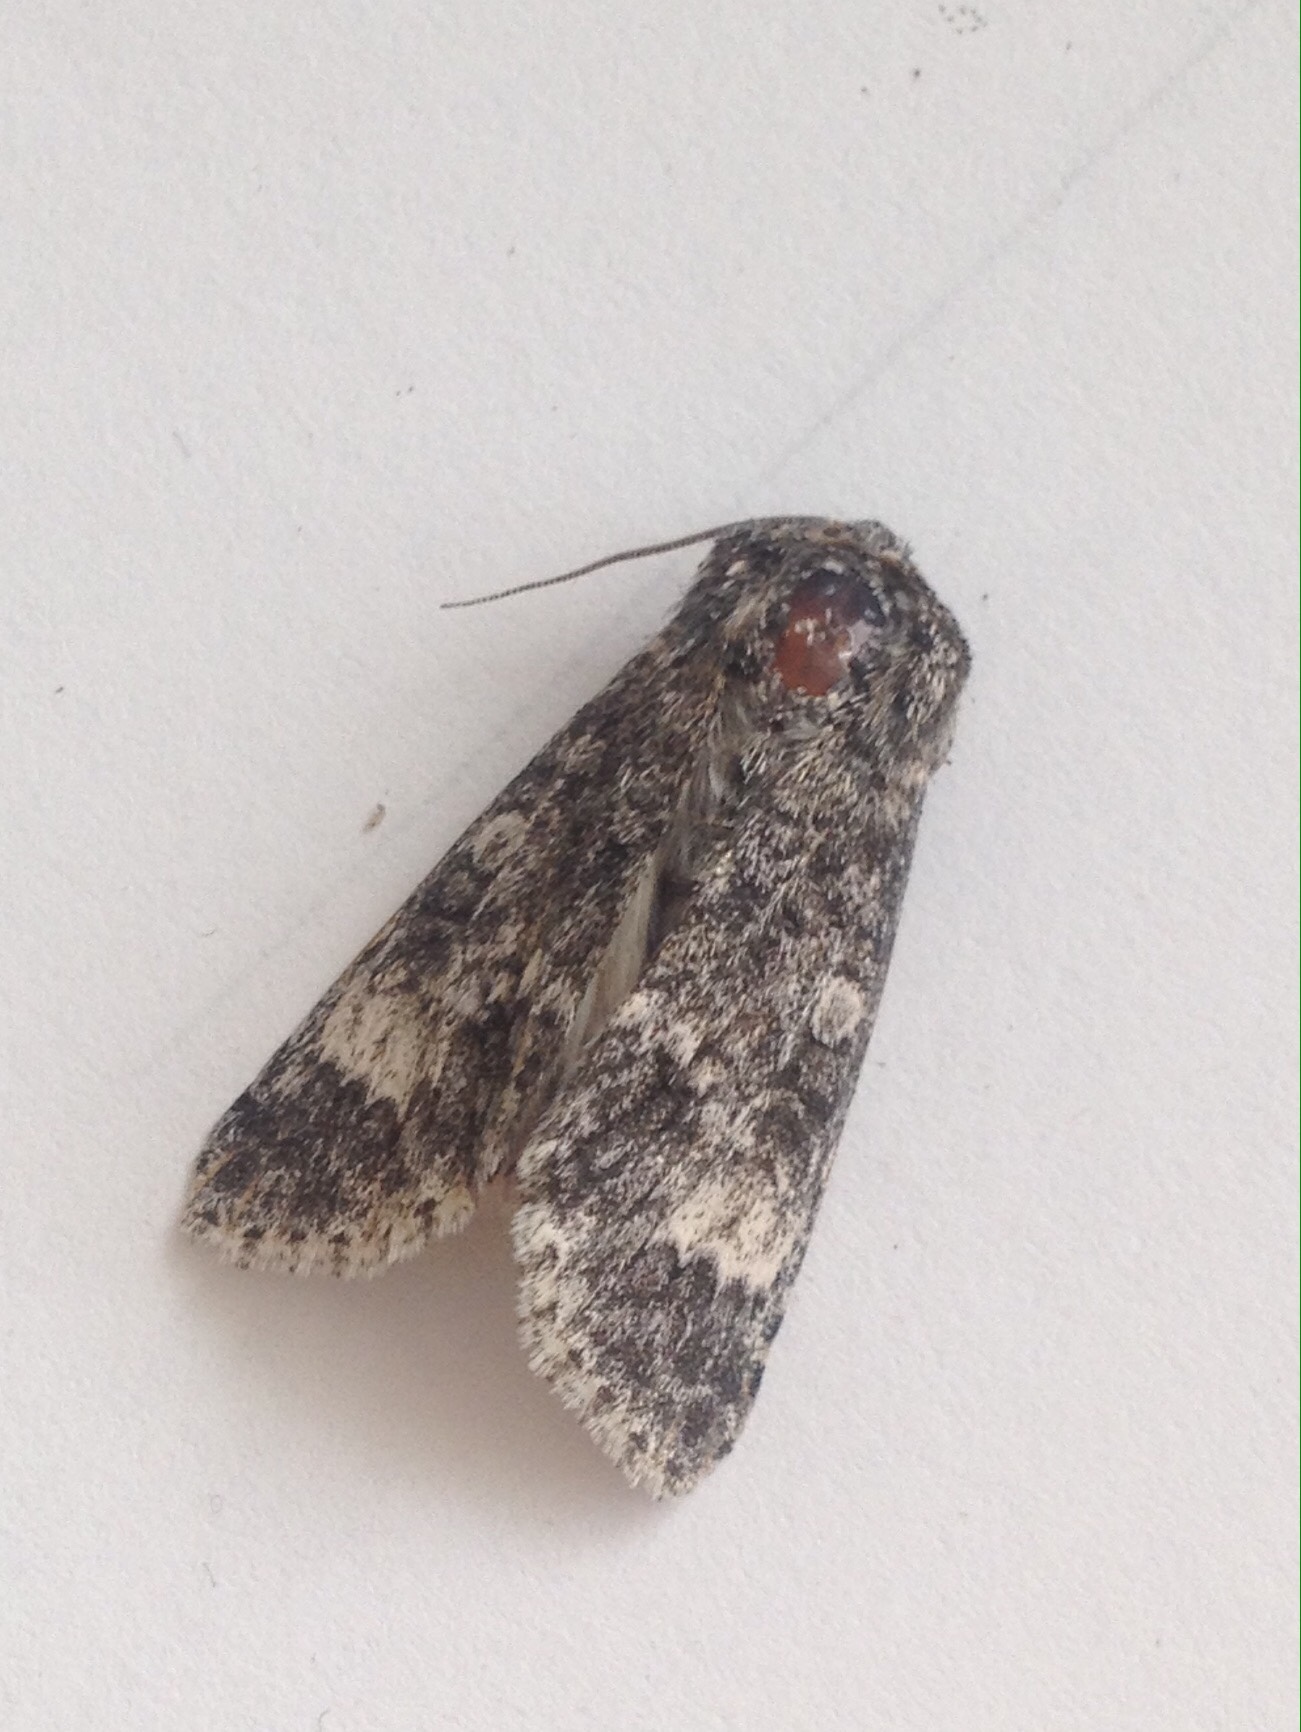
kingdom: Animalia
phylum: Arthropoda
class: Insecta
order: Lepidoptera
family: Noctuidae
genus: Acronicta
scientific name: Acronicta megacephala
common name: Poplar grey
